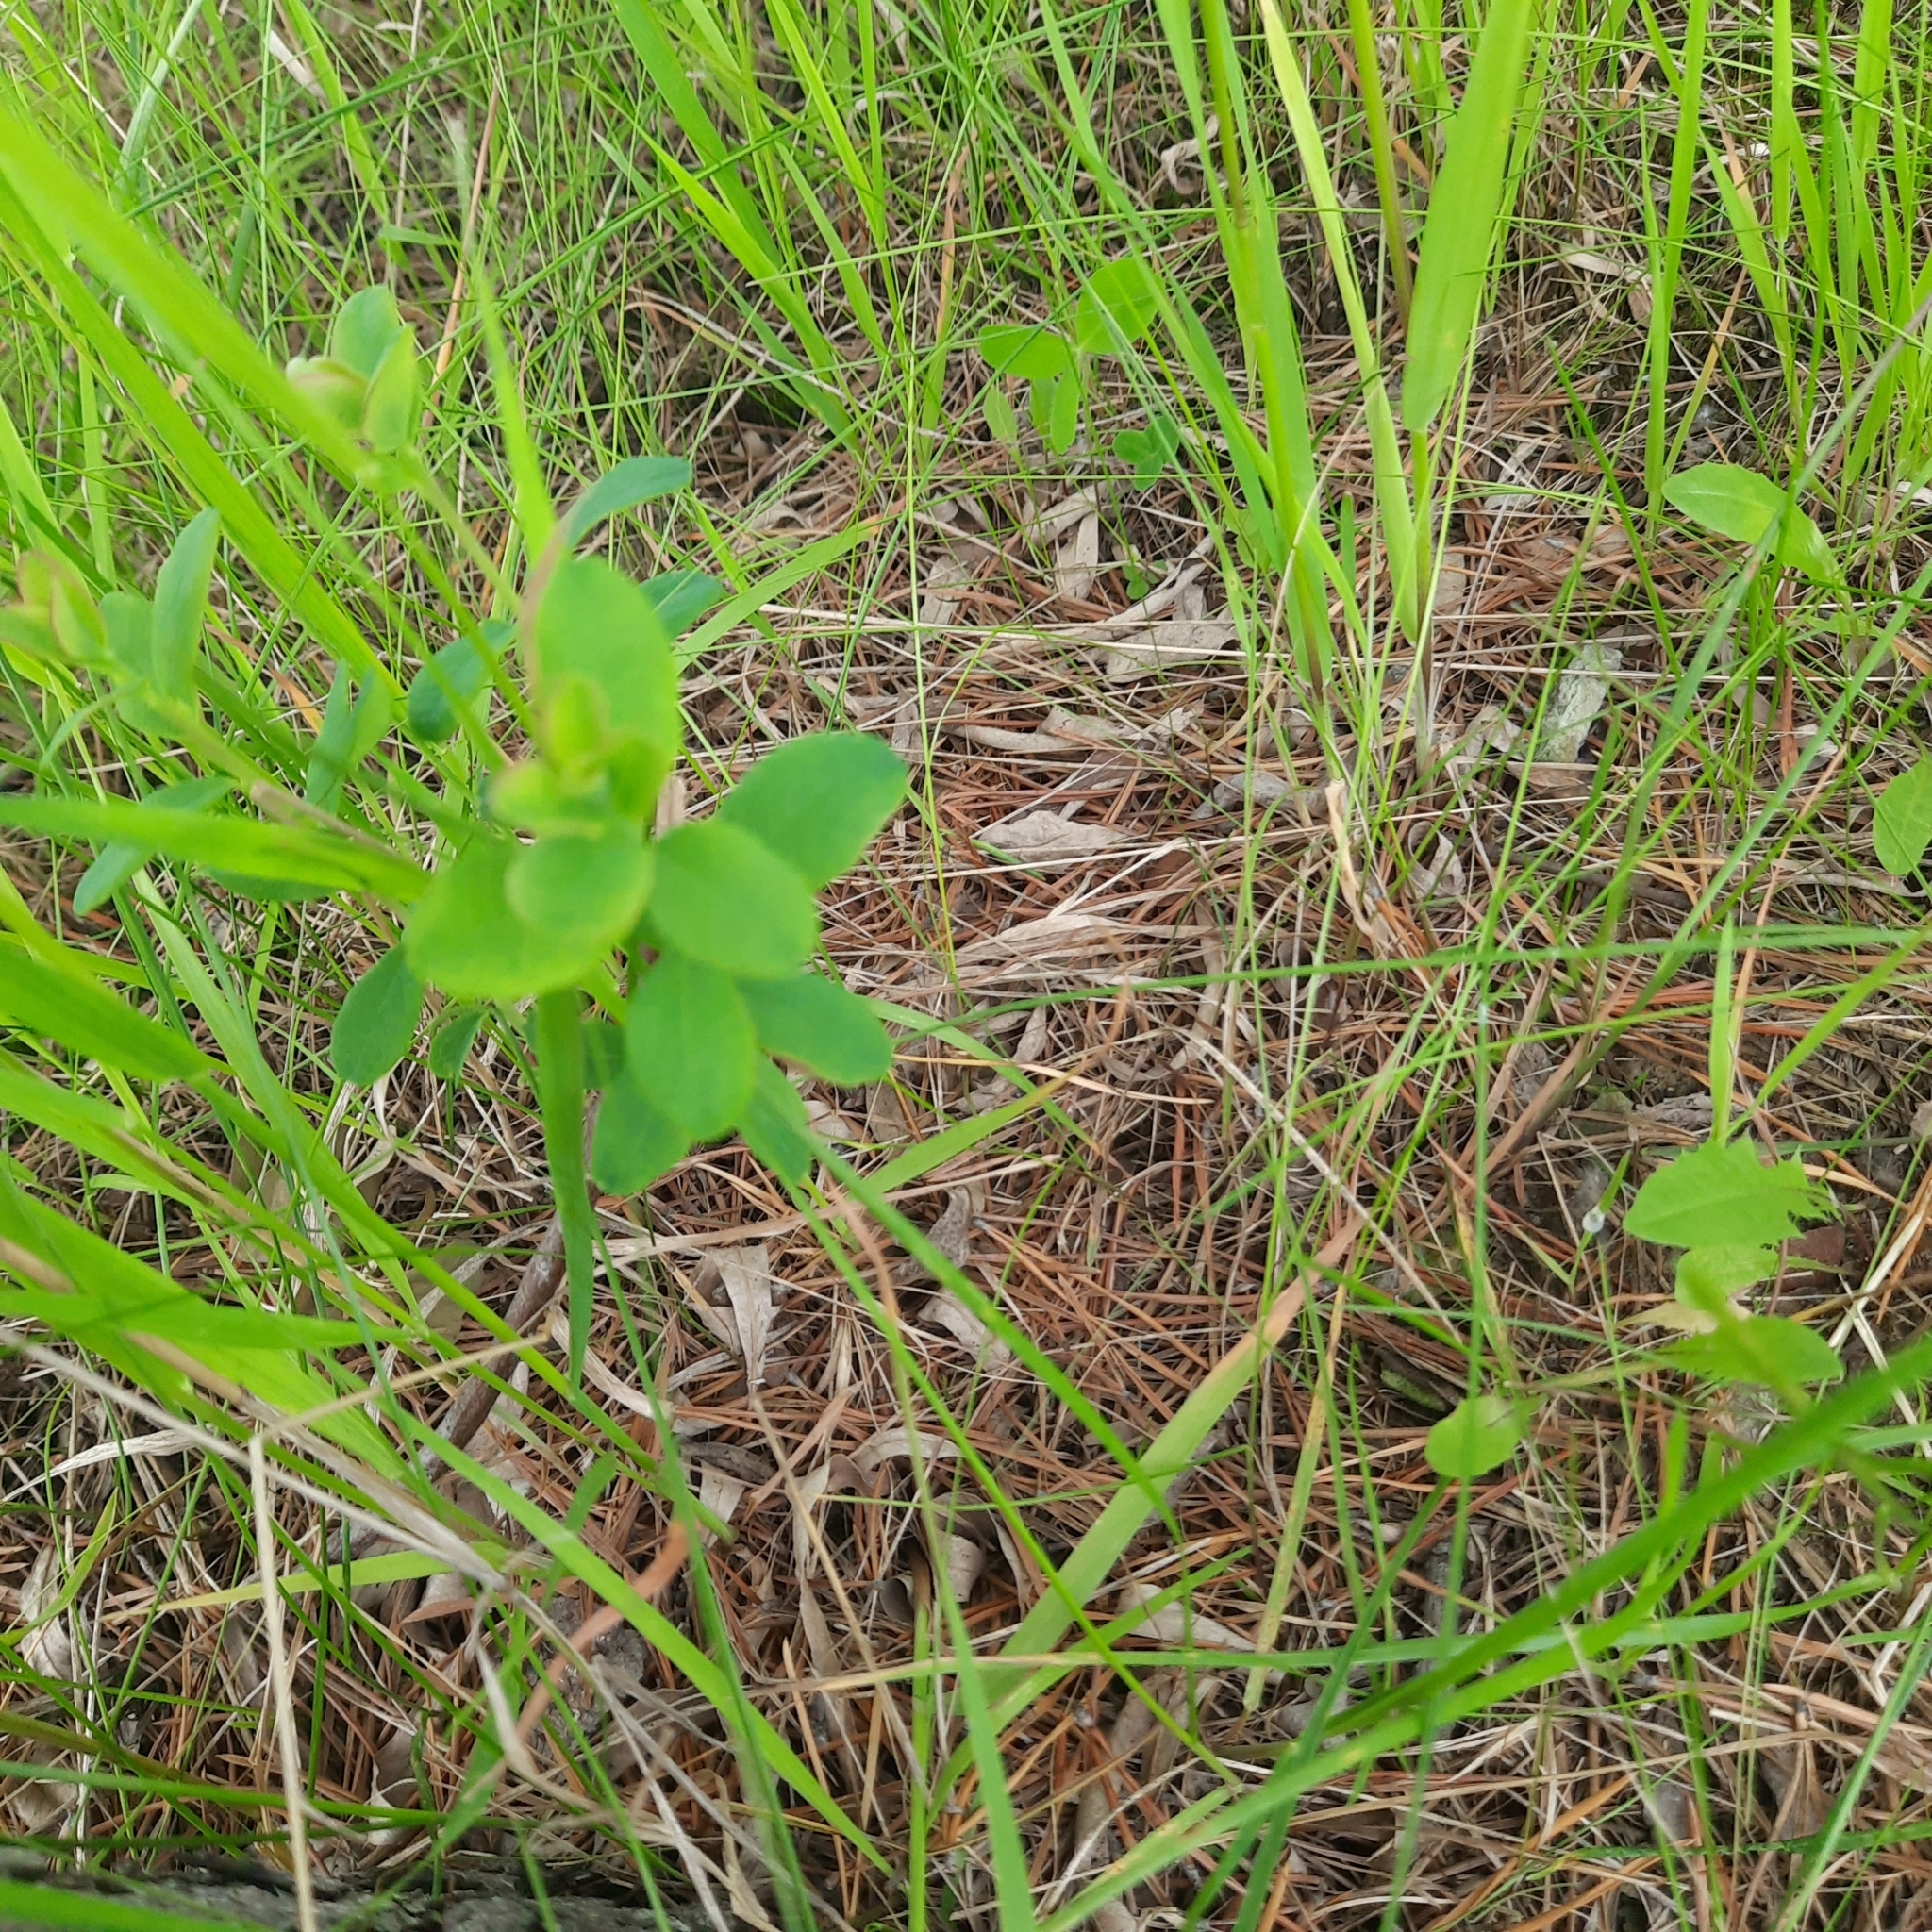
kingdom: Plantae
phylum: Tracheophyta
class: Magnoliopsida
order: Ericales
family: Ericaceae
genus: Vaccinium
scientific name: Vaccinium uliginosum
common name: Bog bilberry
